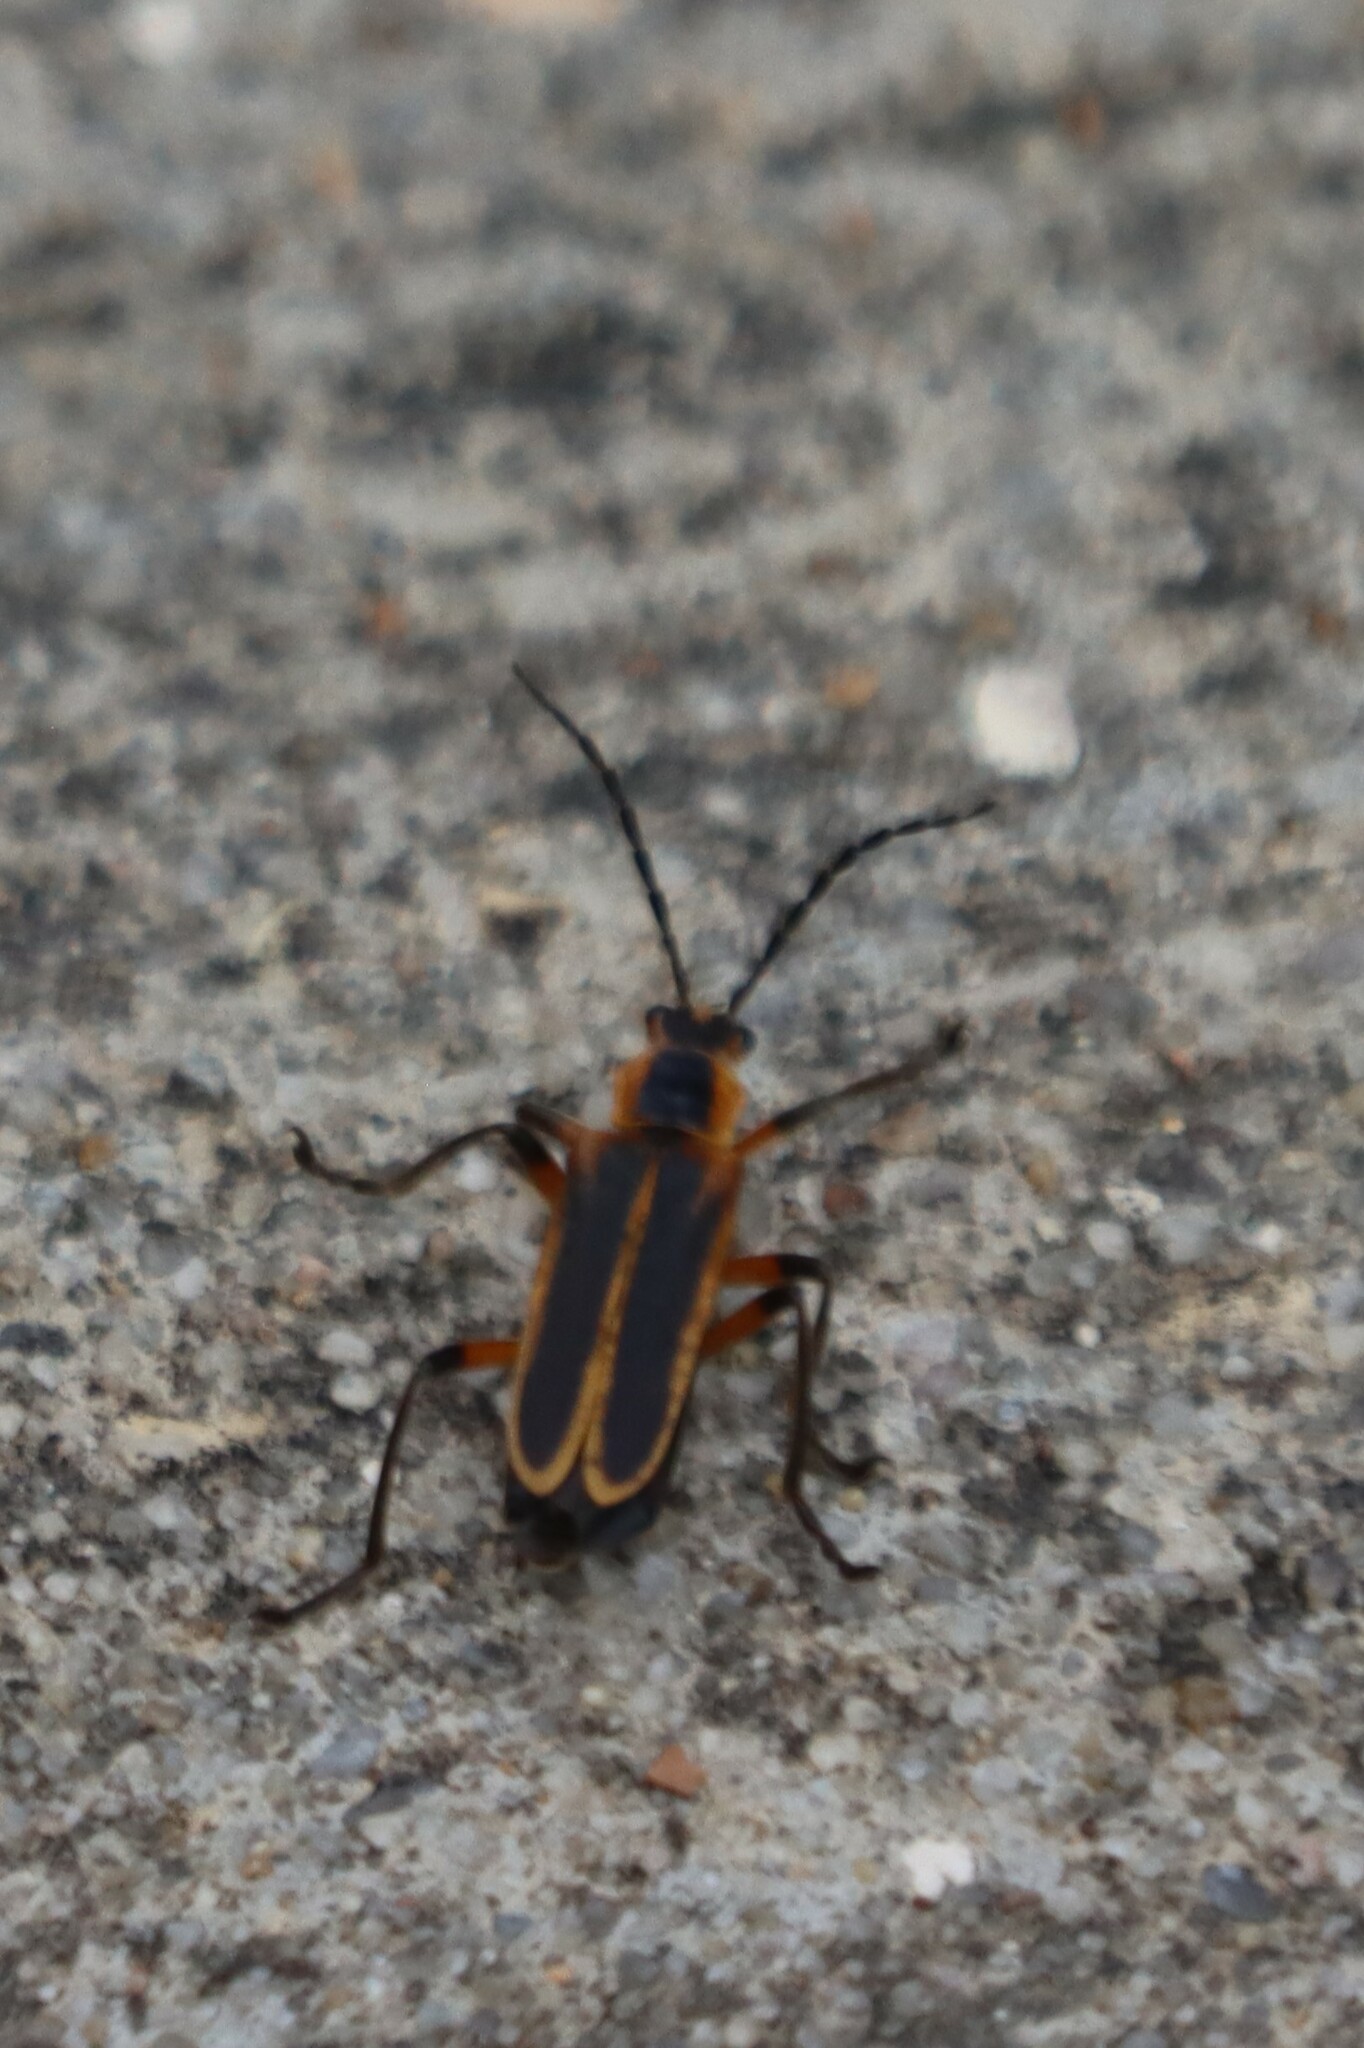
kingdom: Animalia
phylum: Arthropoda
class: Insecta
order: Coleoptera
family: Cantharidae
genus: Chauliognathus
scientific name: Chauliognathus marginatus
